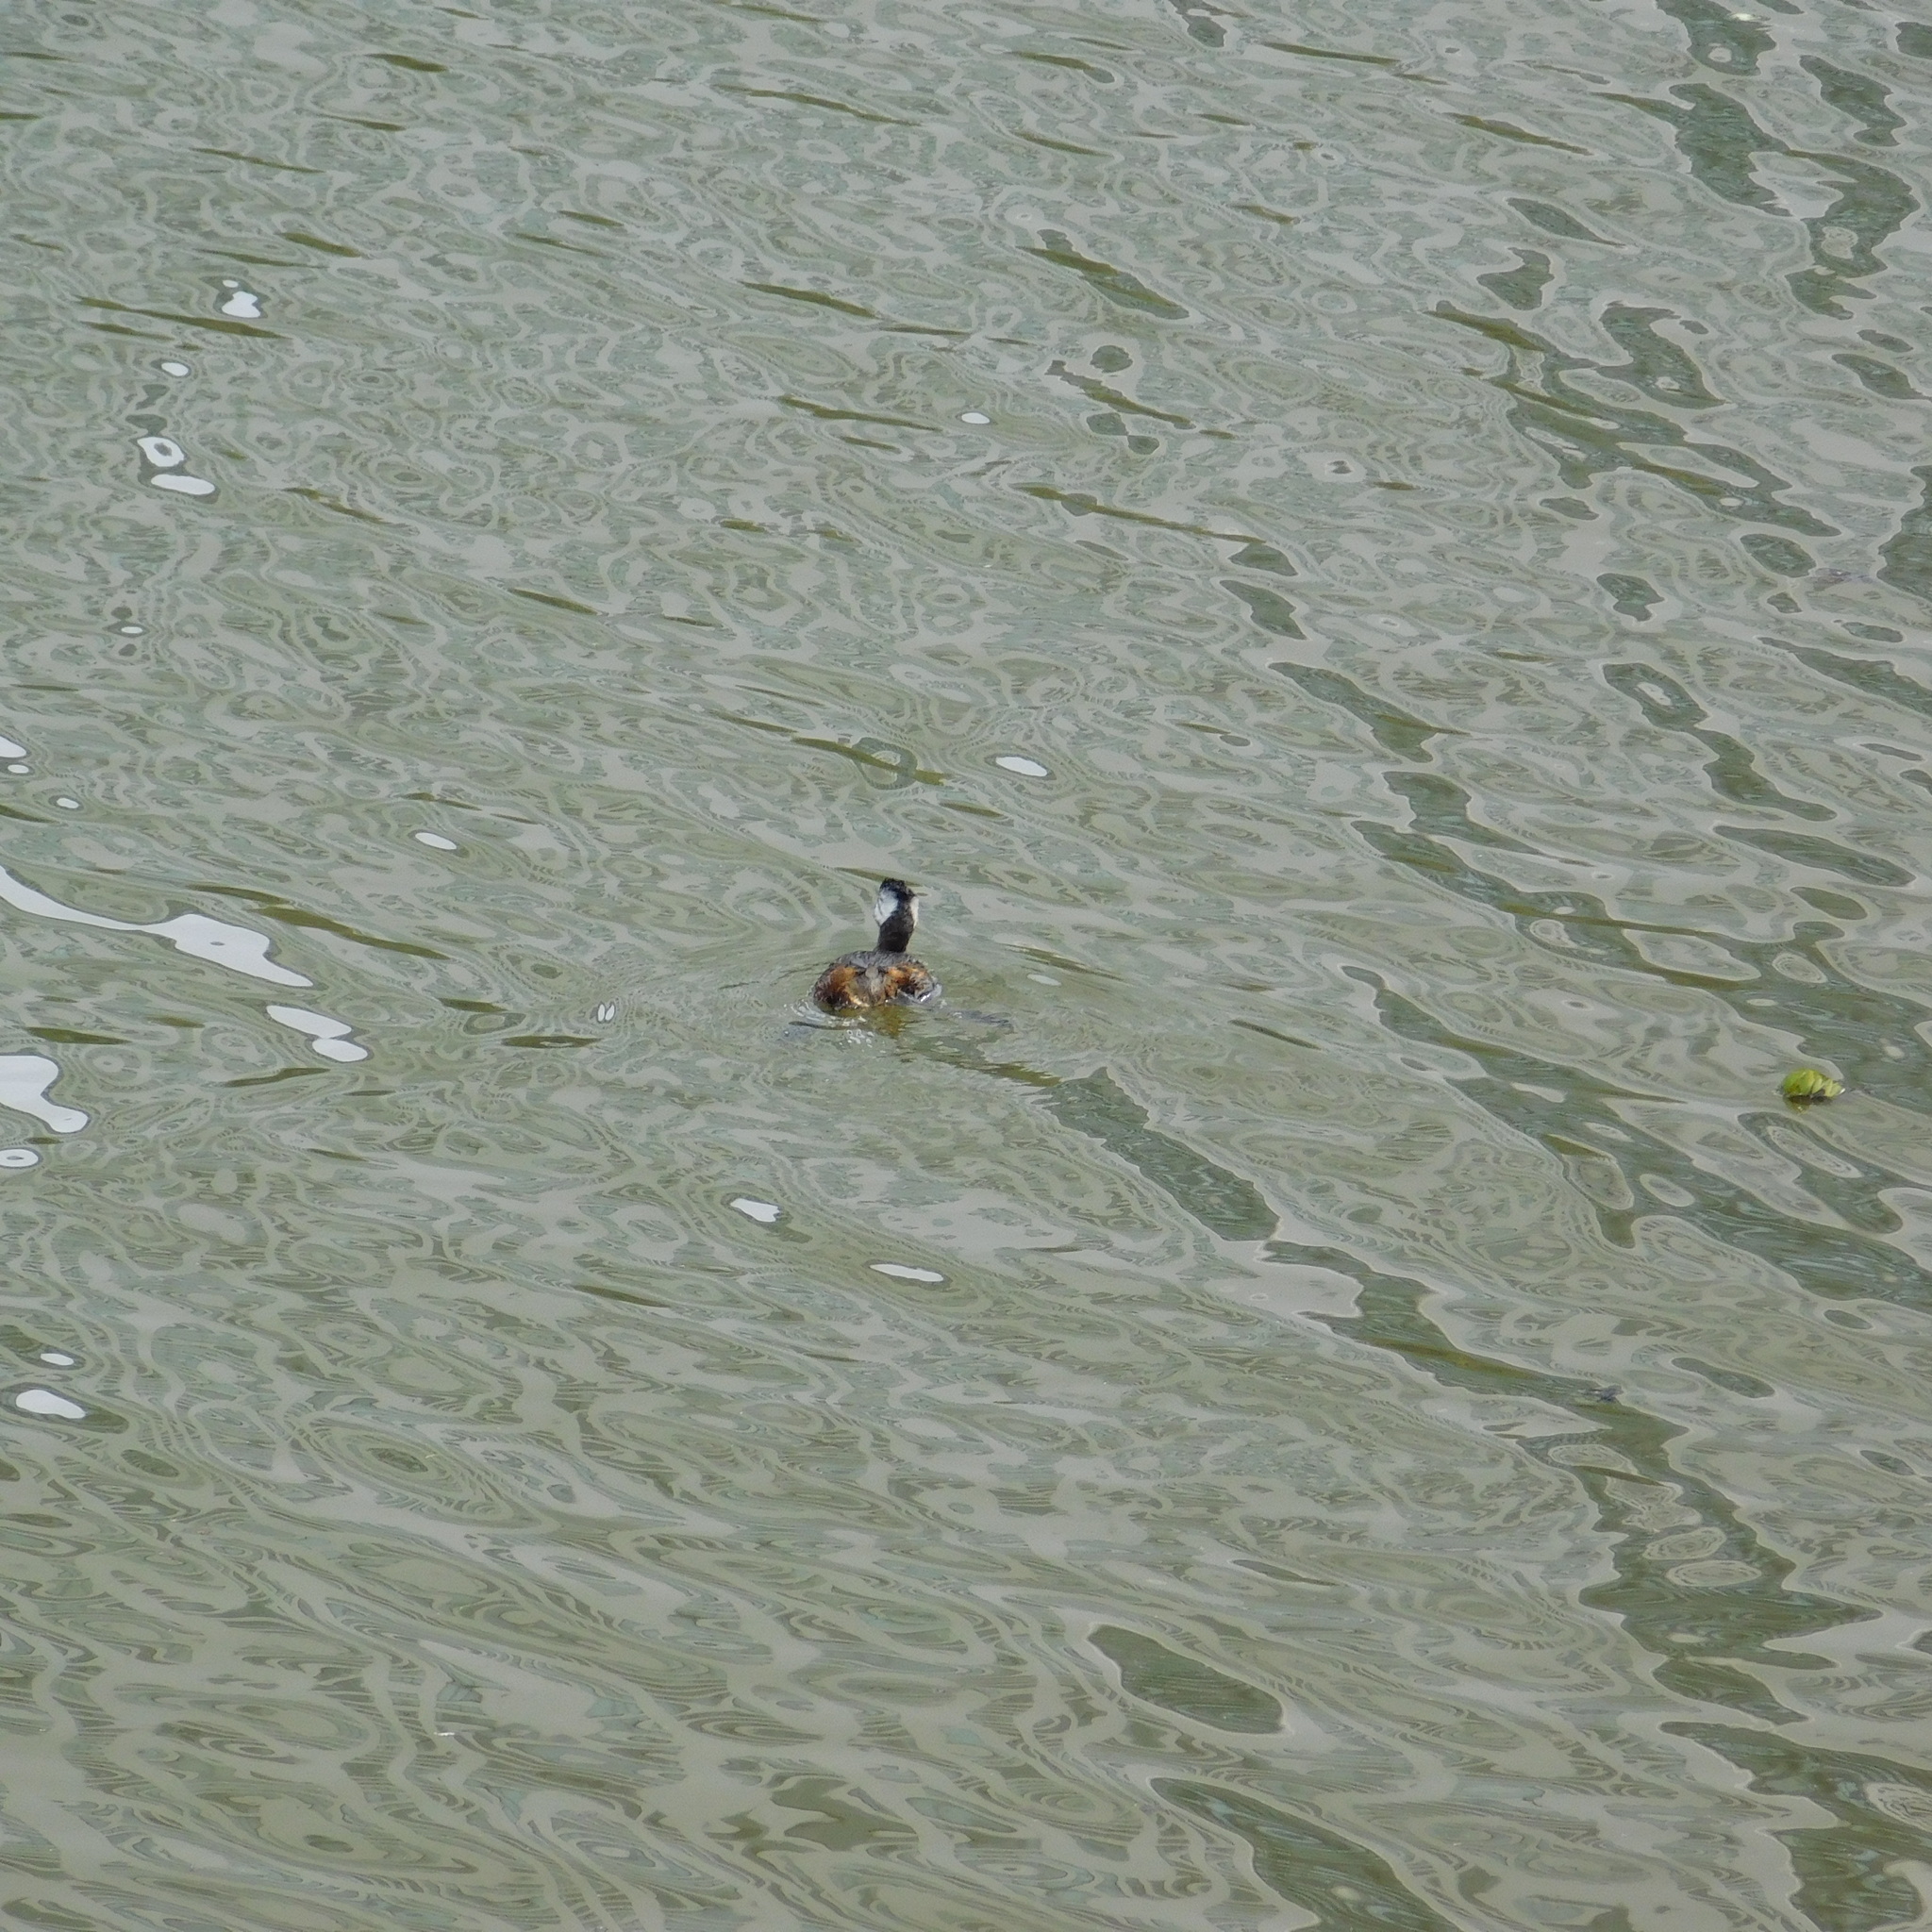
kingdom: Animalia
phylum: Chordata
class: Aves
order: Podicipediformes
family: Podicipedidae
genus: Rollandia
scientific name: Rollandia rolland
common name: White-tufted grebe
